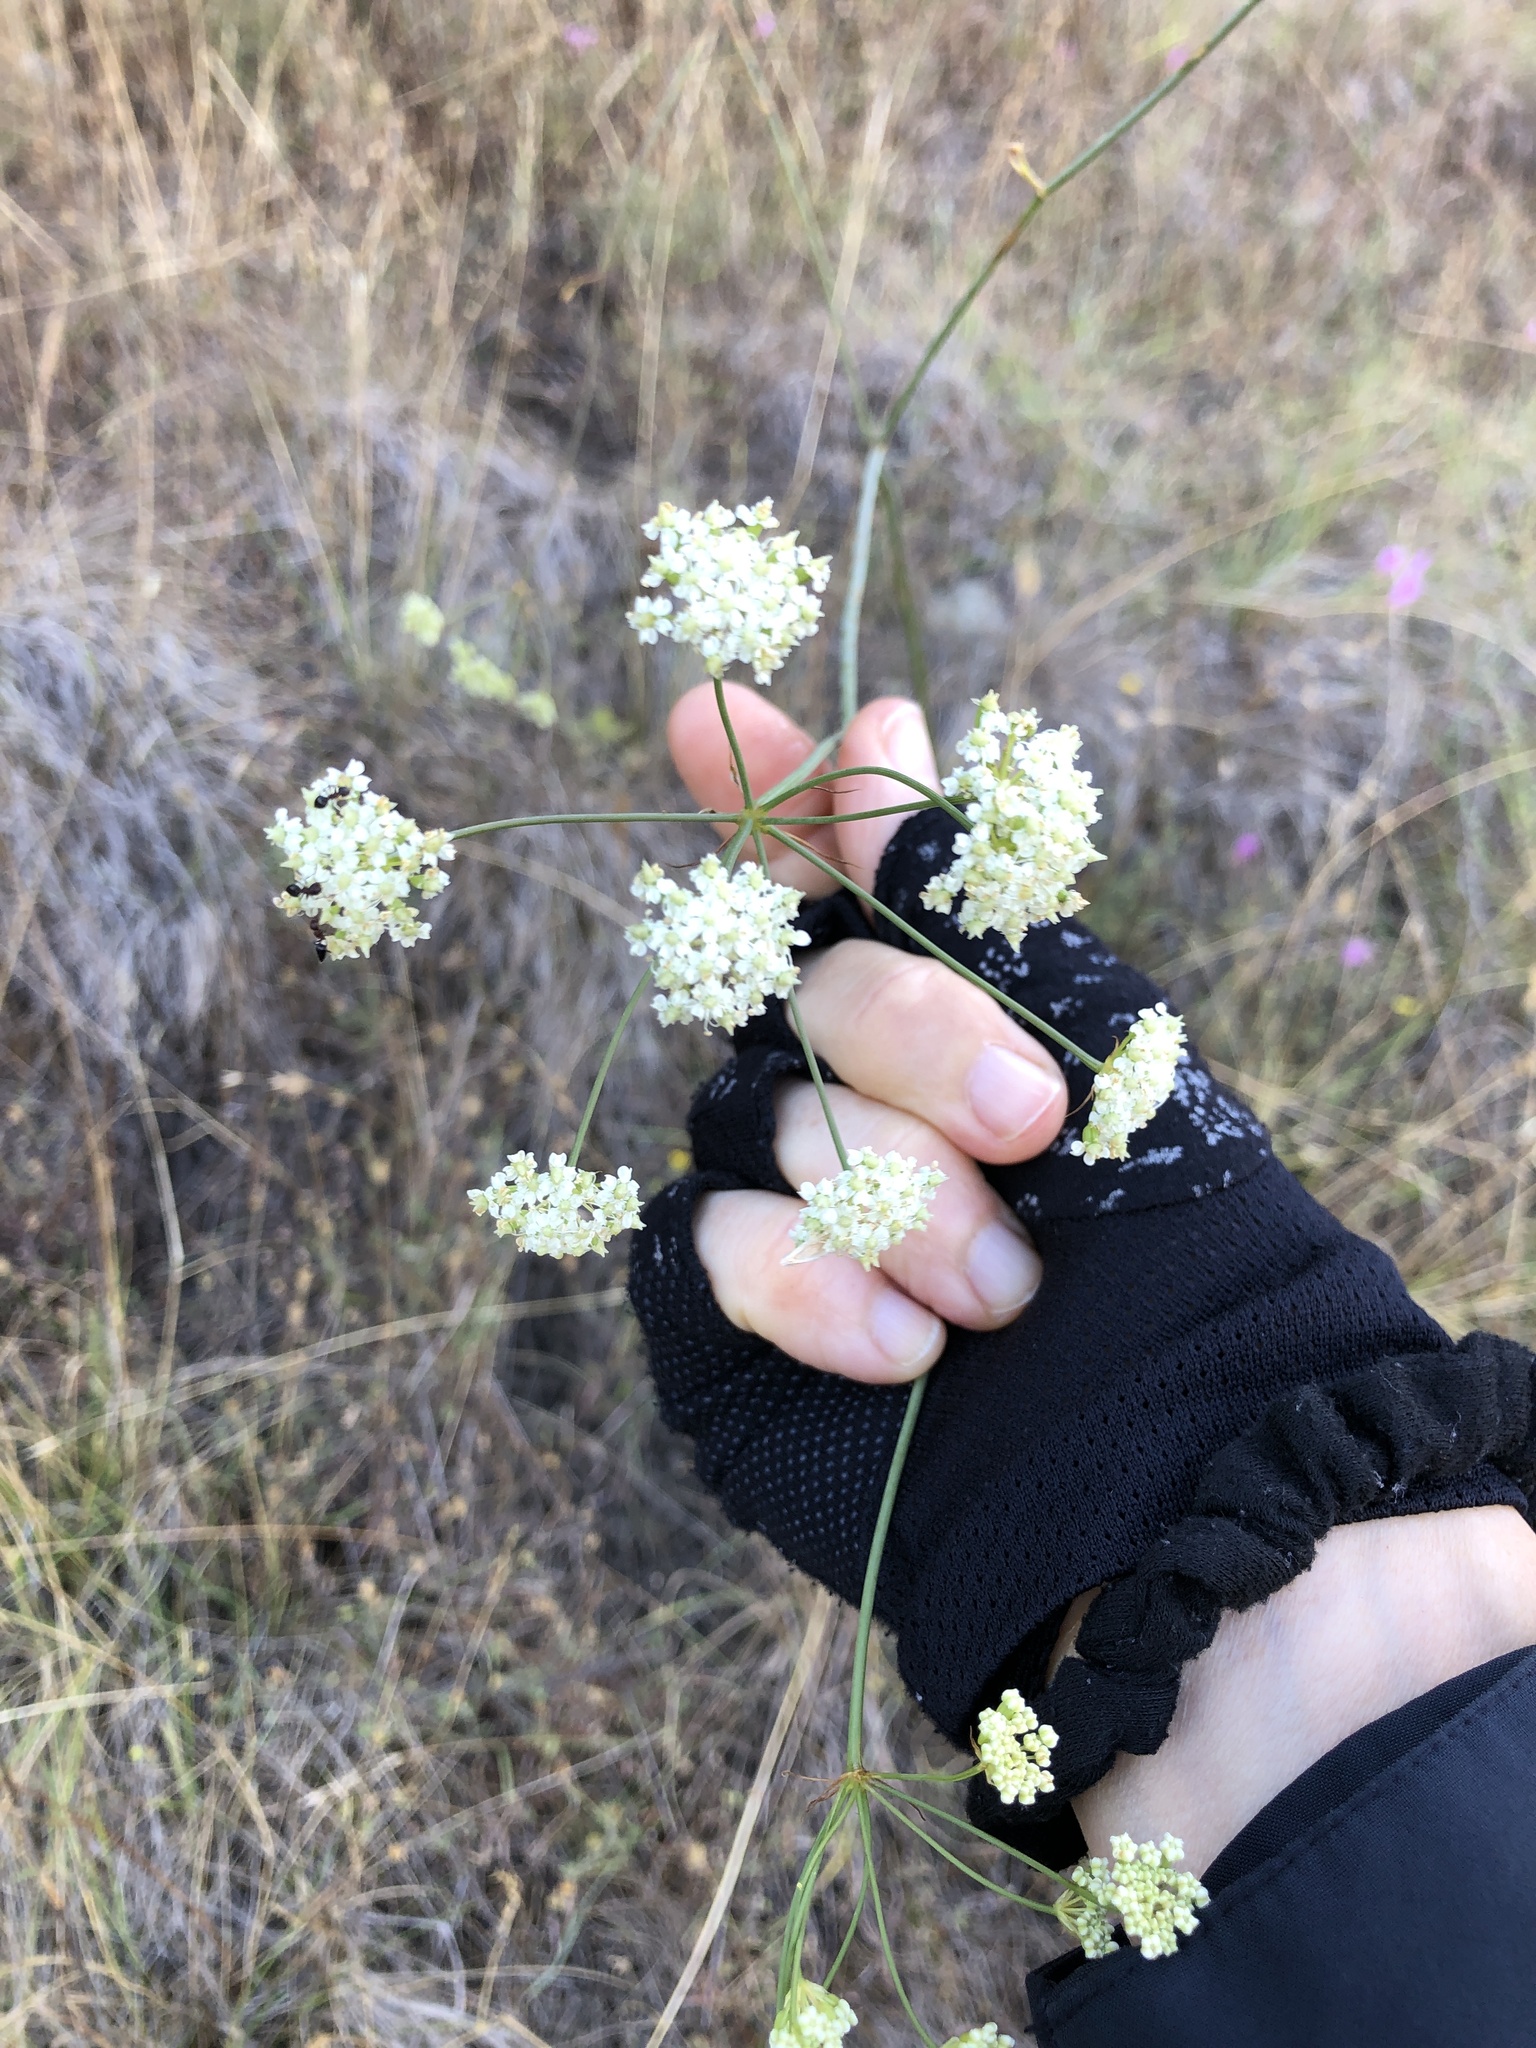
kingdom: Plantae
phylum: Tracheophyta
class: Magnoliopsida
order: Apiales
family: Apiaceae
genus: Perideridia
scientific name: Perideridia kelloggii
